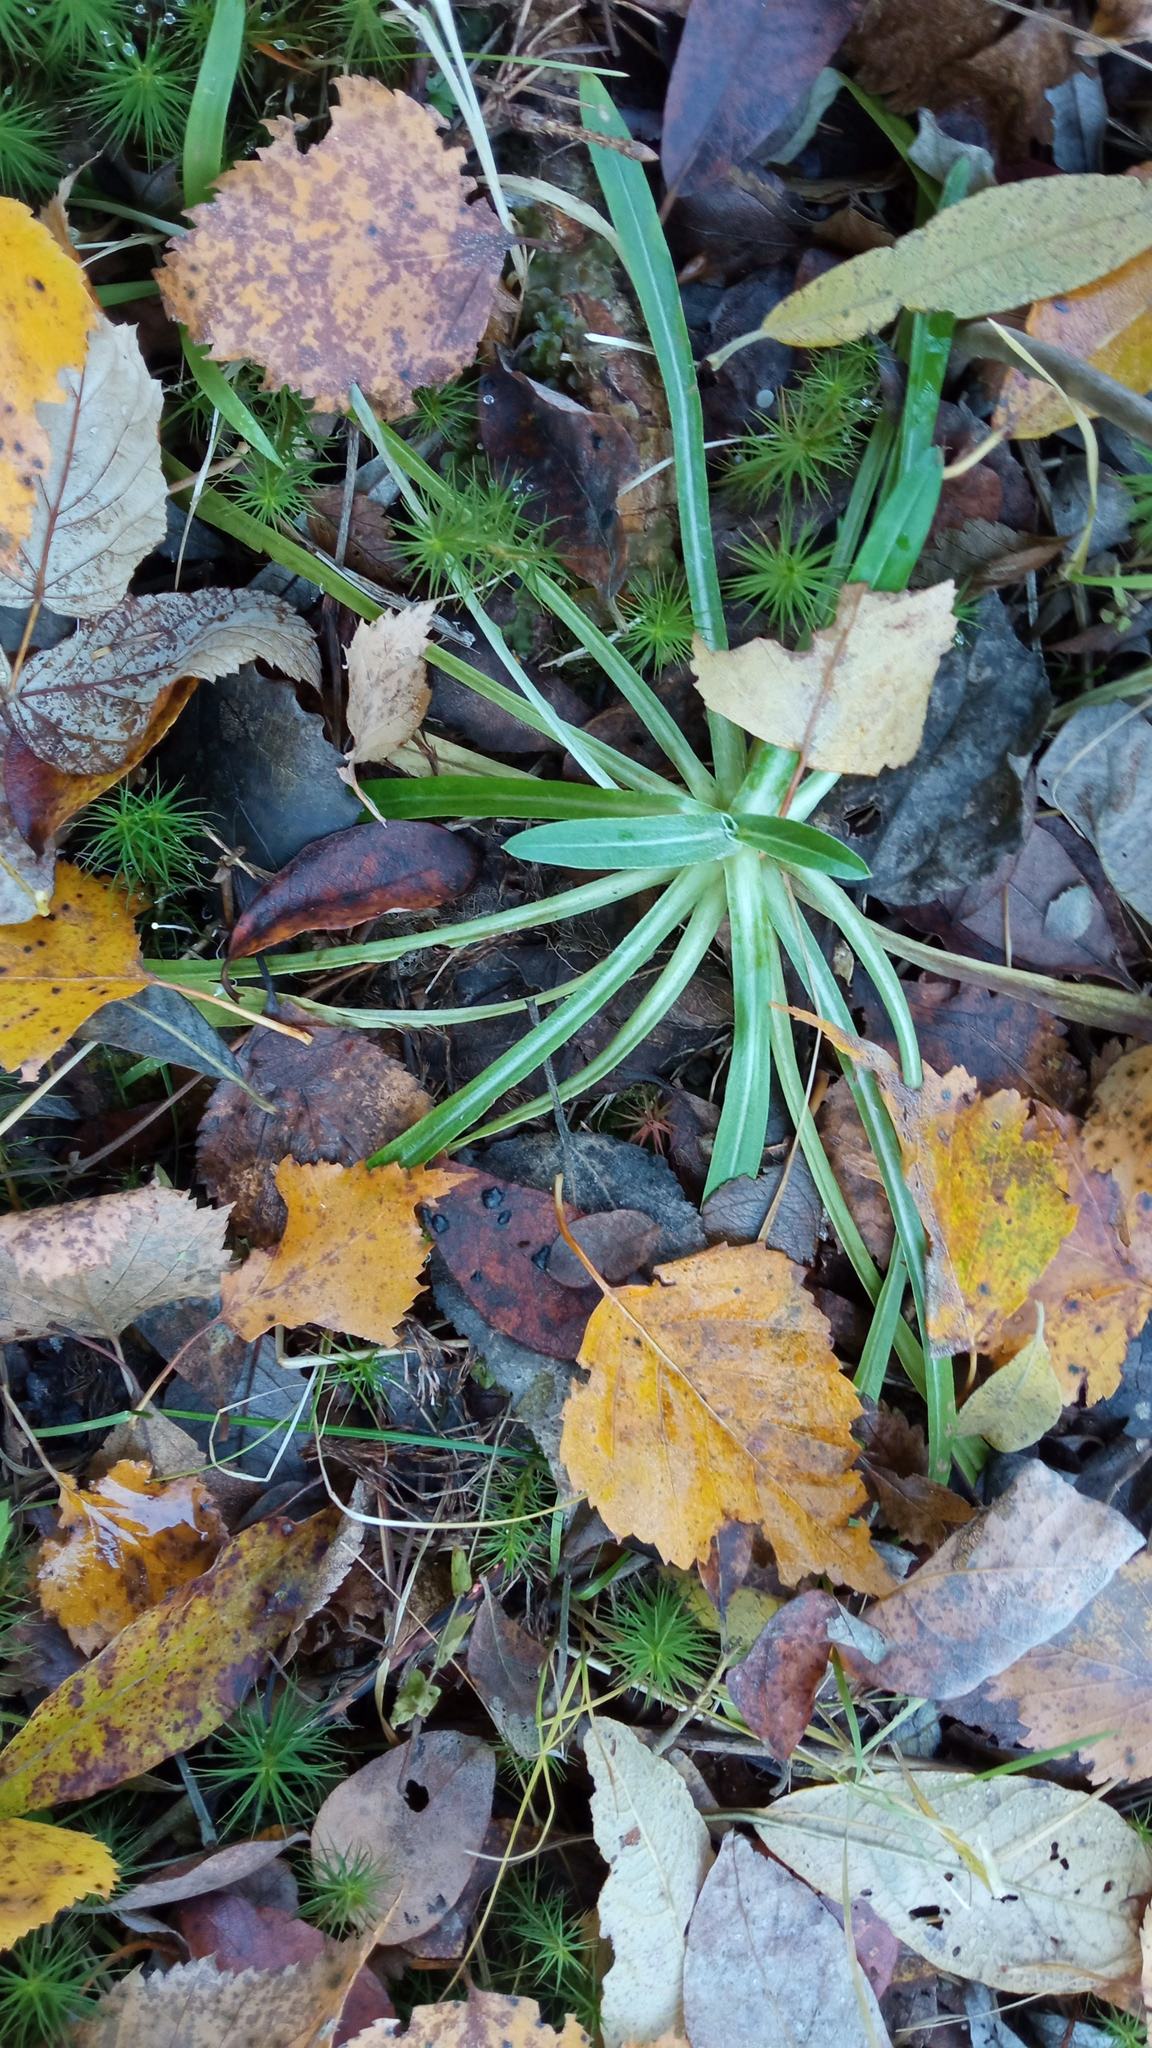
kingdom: Plantae
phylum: Tracheophyta
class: Magnoliopsida
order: Asterales
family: Asteraceae
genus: Omalotheca
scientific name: Omalotheca sylvatica
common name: Heath cudweed
